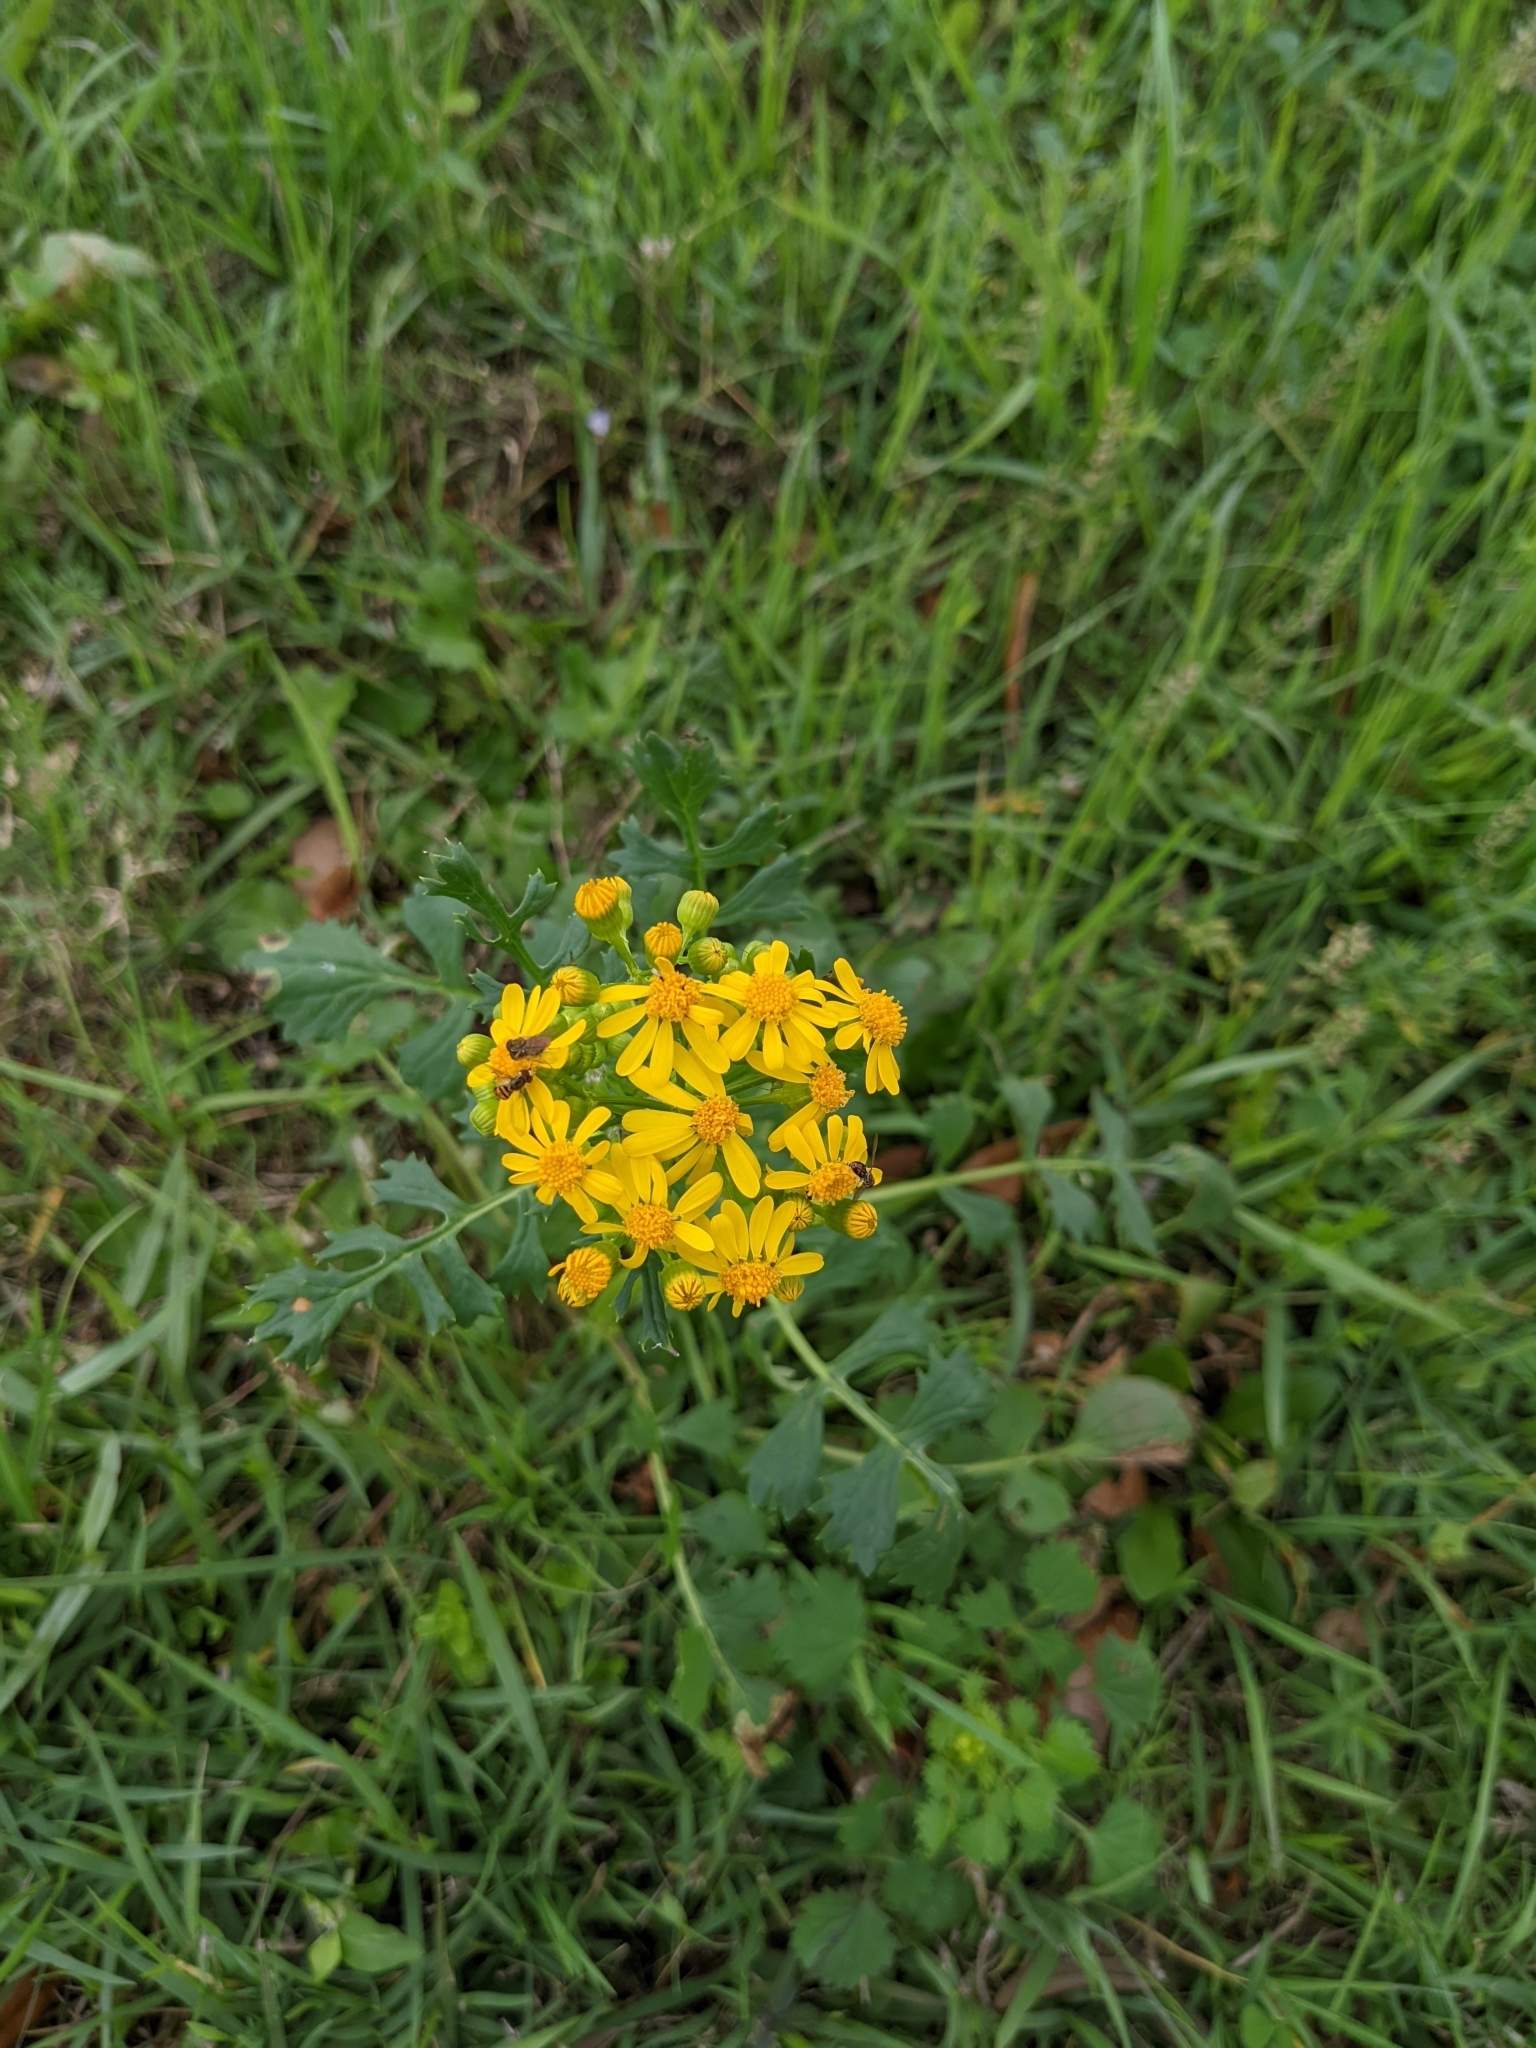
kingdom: Plantae
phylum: Tracheophyta
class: Magnoliopsida
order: Asterales
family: Asteraceae
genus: Packera
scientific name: Packera glabella
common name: Butterweed
